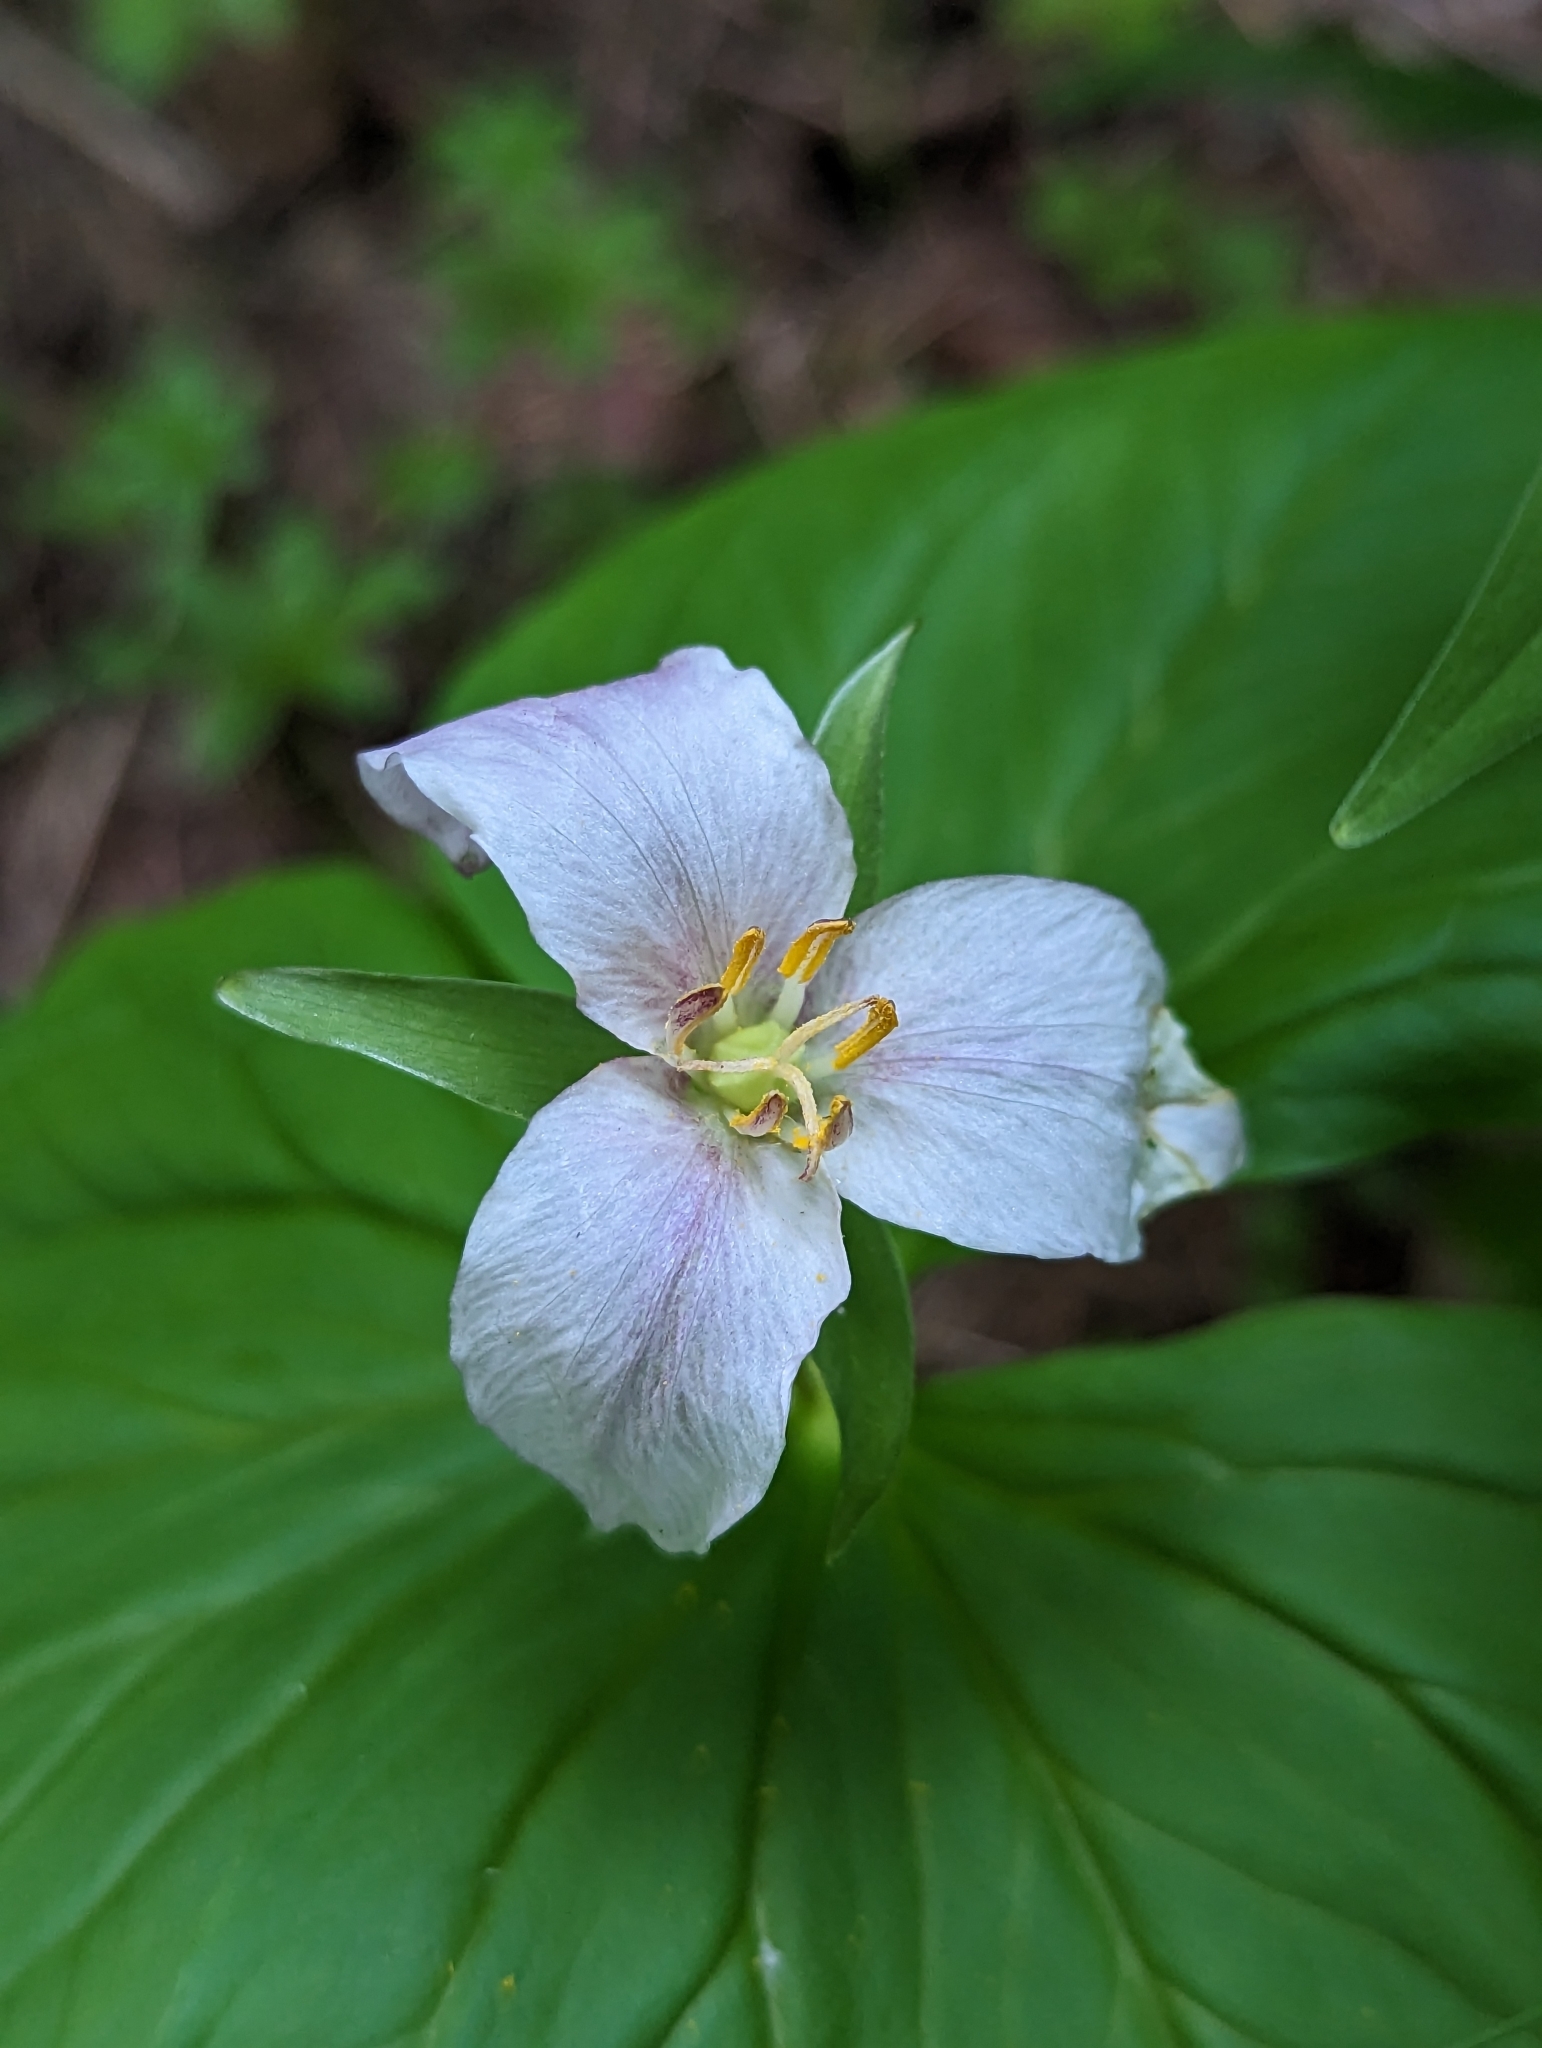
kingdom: Plantae
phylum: Tracheophyta
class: Liliopsida
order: Liliales
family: Melanthiaceae
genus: Trillium
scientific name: Trillium ovatum
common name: Pacific trillium
